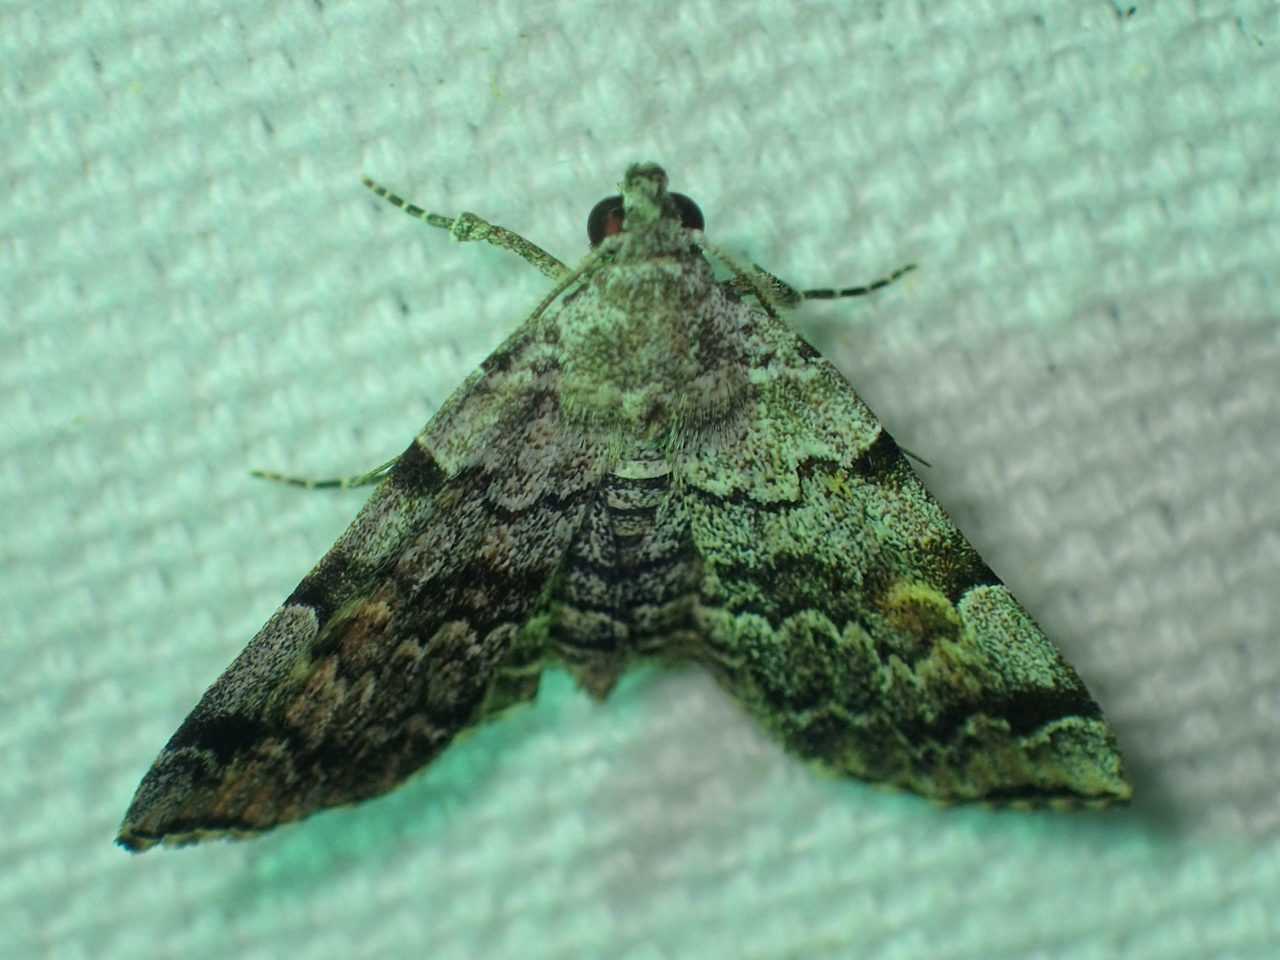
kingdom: Animalia
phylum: Arthropoda
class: Insecta
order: Lepidoptera
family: Erebidae
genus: Idia
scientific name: Idia americalis
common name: American idia moth
